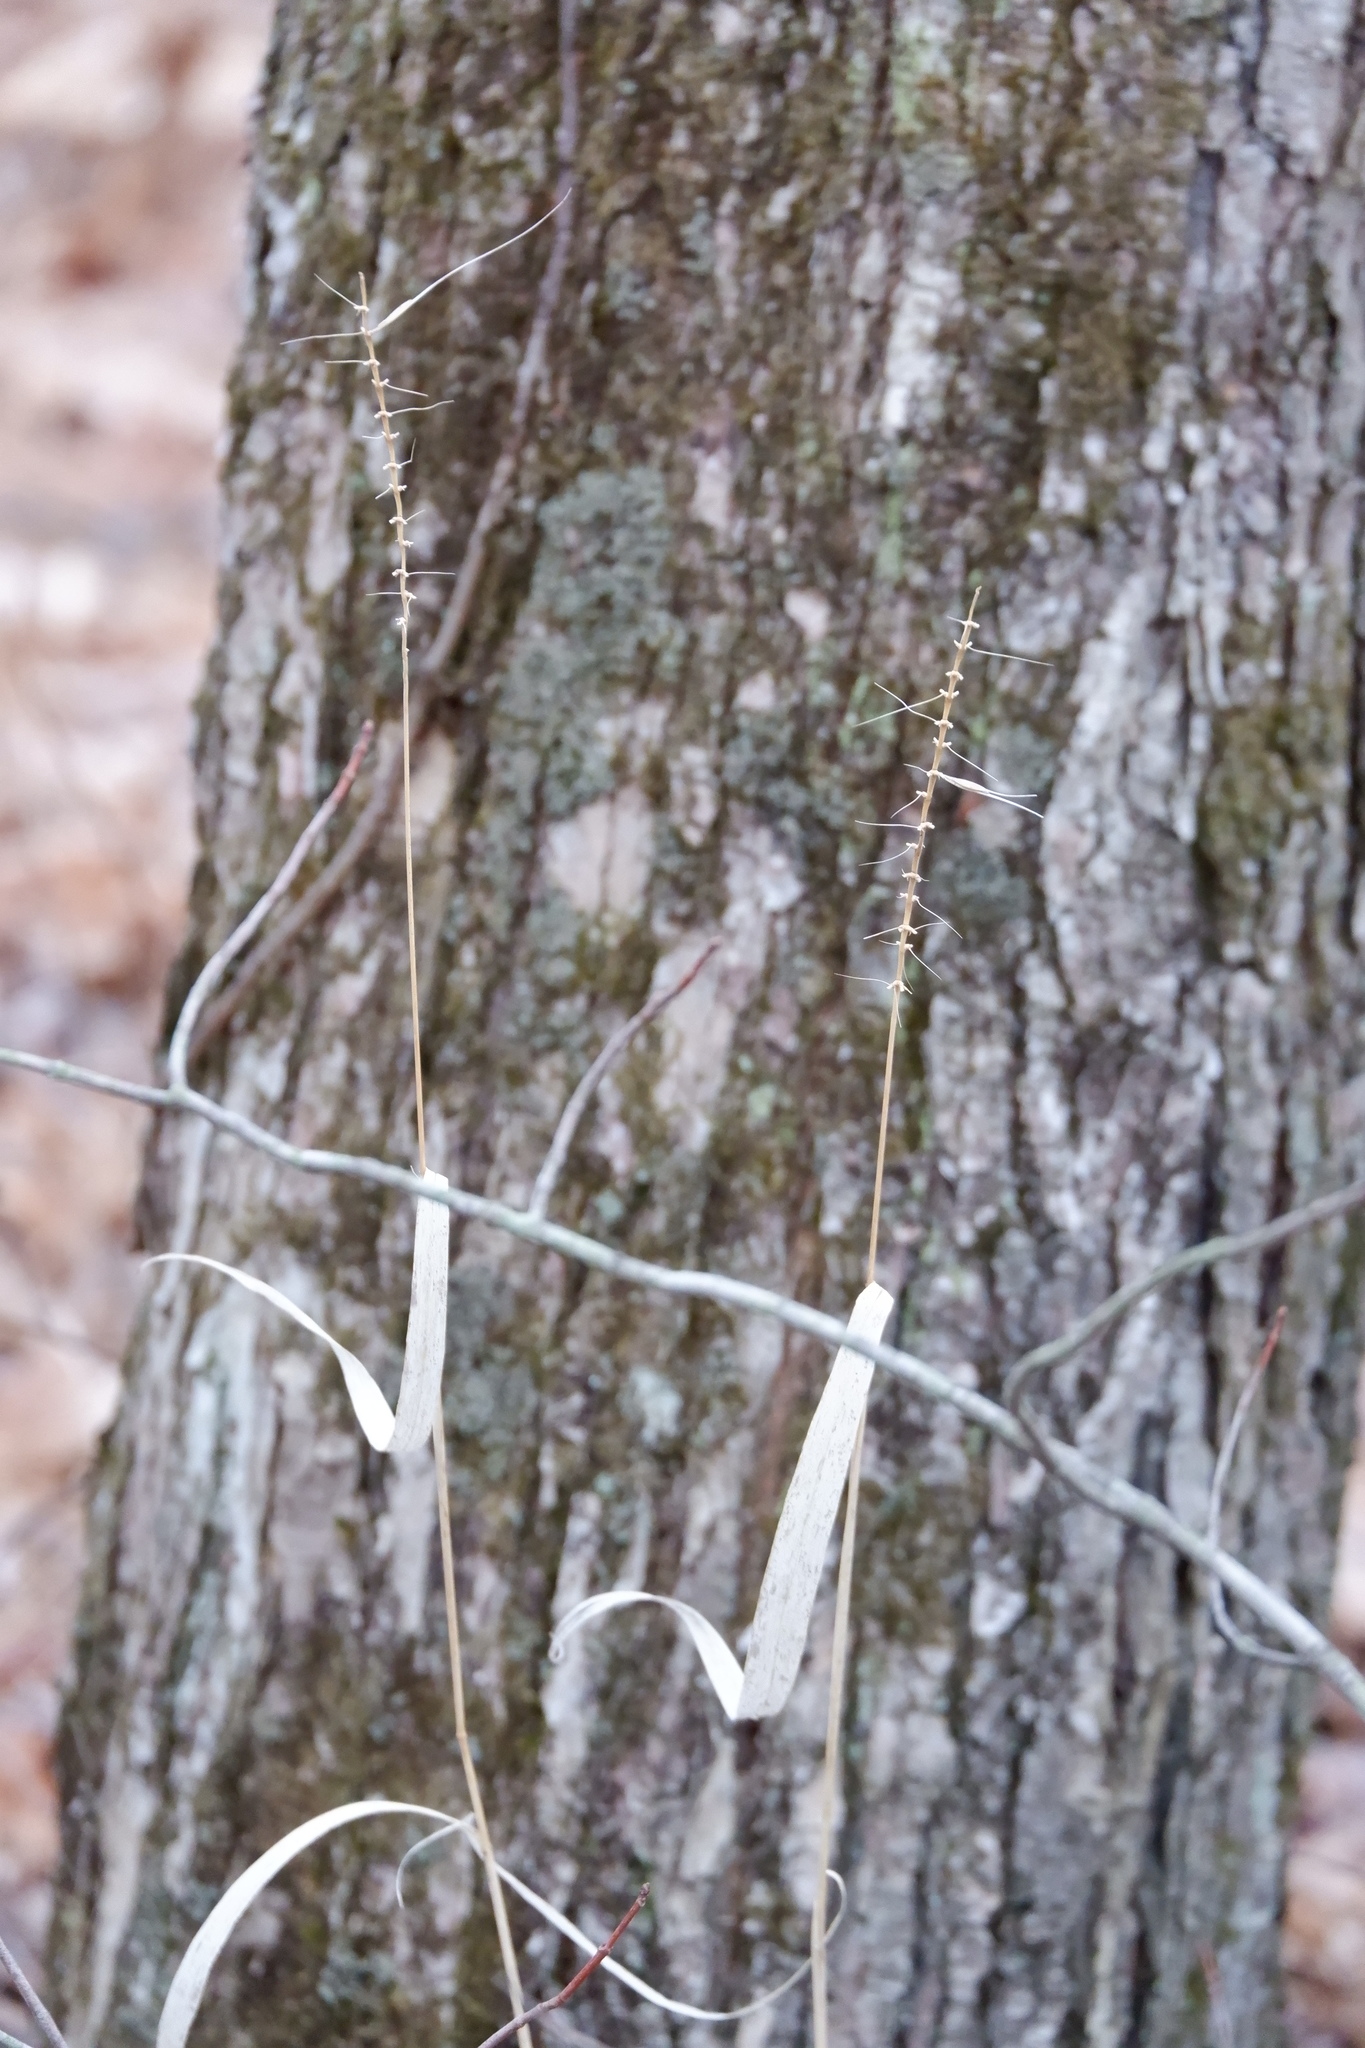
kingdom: Plantae
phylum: Tracheophyta
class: Liliopsida
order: Poales
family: Poaceae
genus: Elymus
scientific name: Elymus hystrix
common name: Bottlebrush grass
